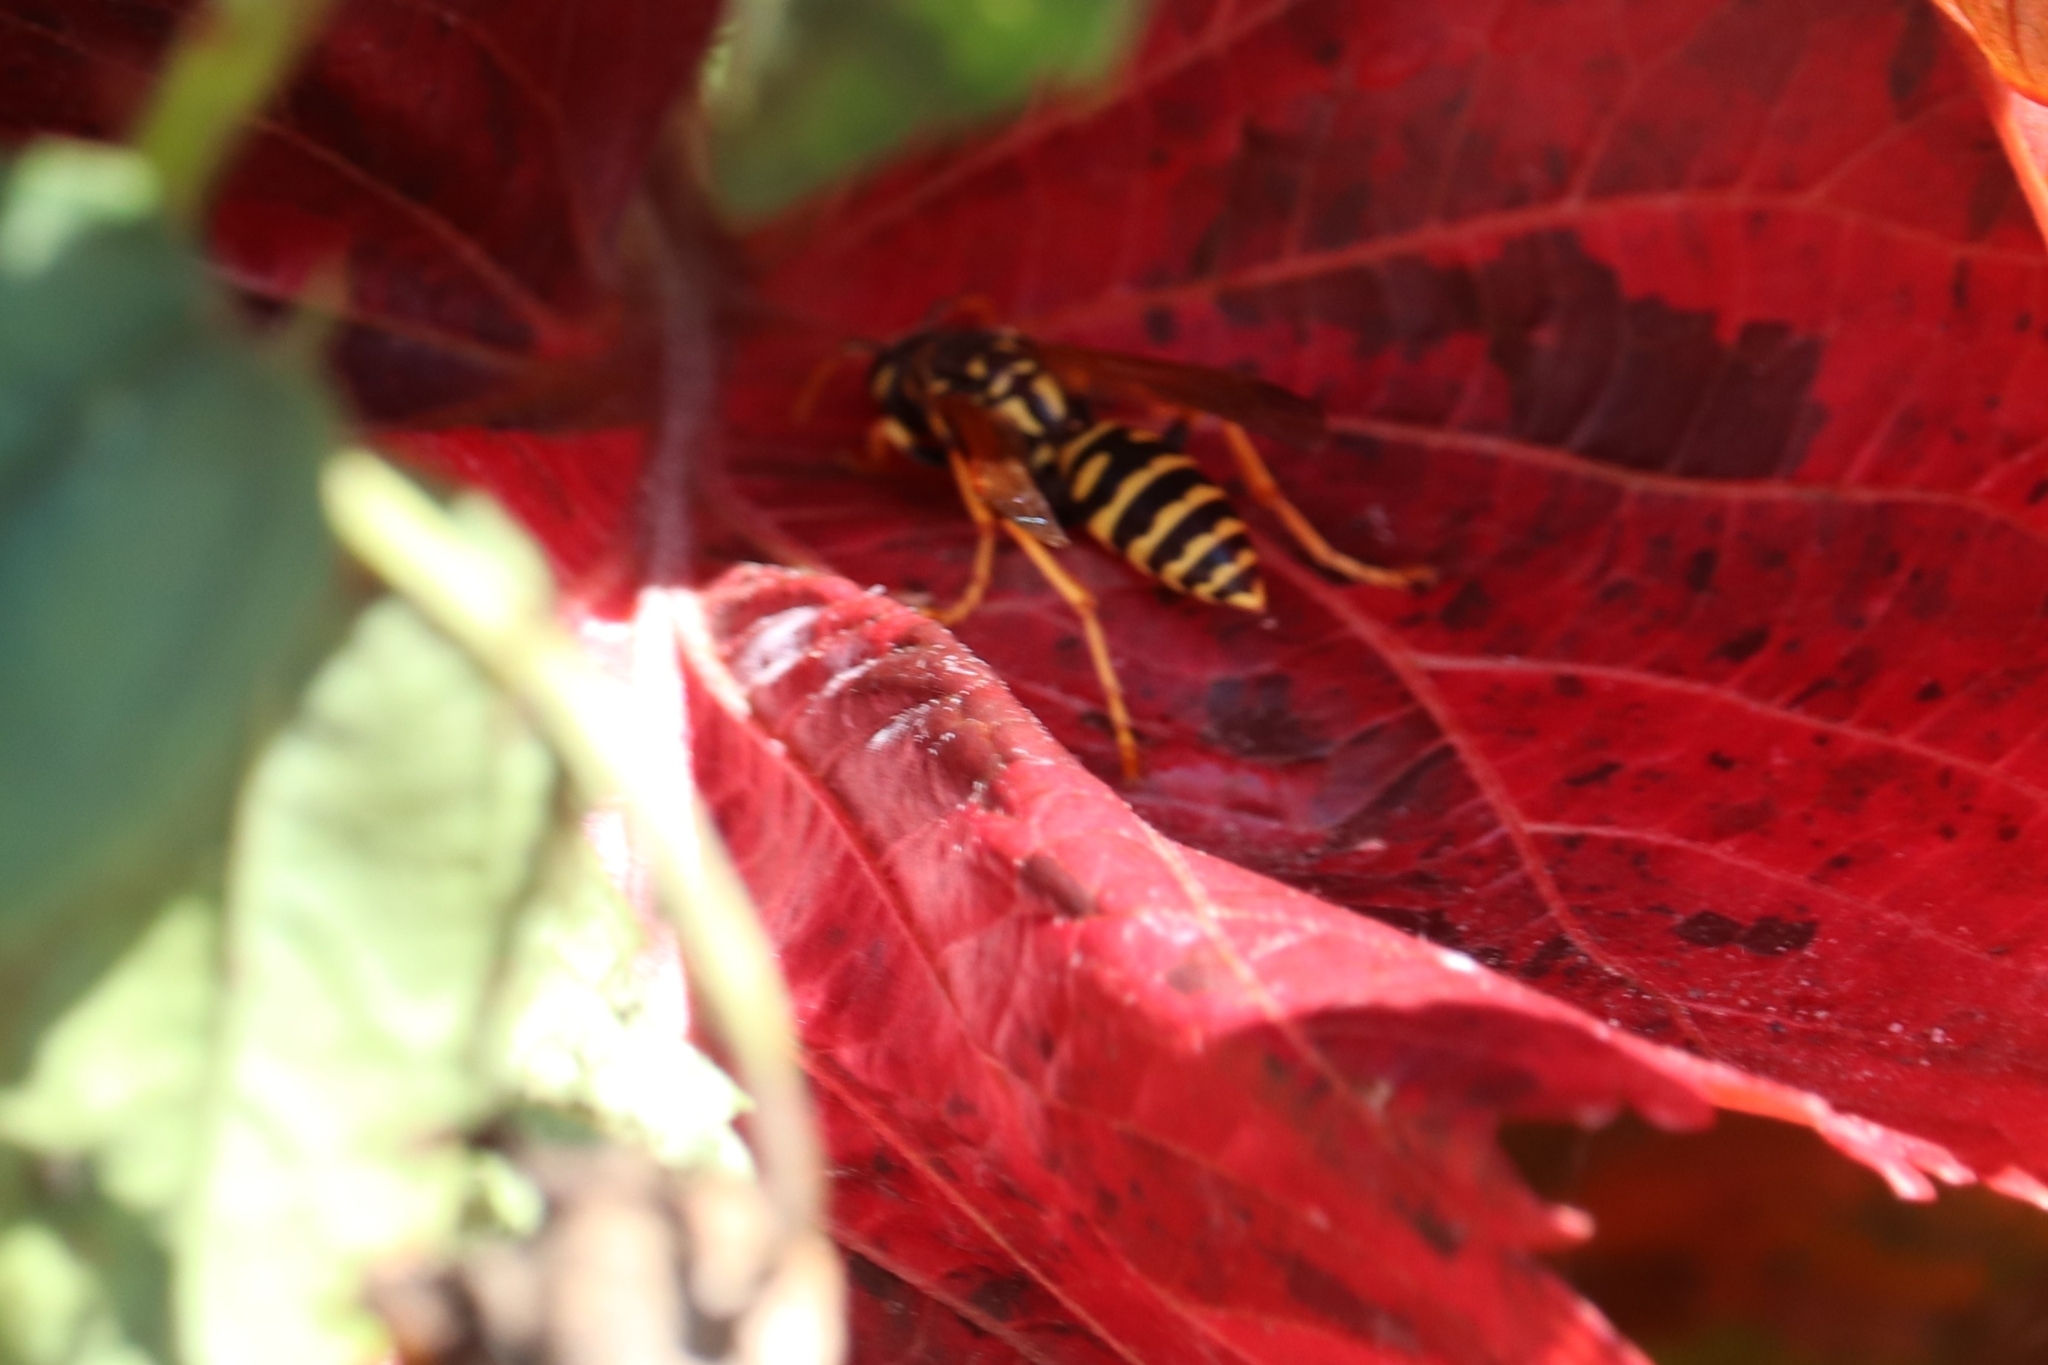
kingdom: Animalia
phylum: Arthropoda
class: Insecta
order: Hymenoptera
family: Eumenidae
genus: Polistes
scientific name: Polistes dominula
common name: Paper wasp
